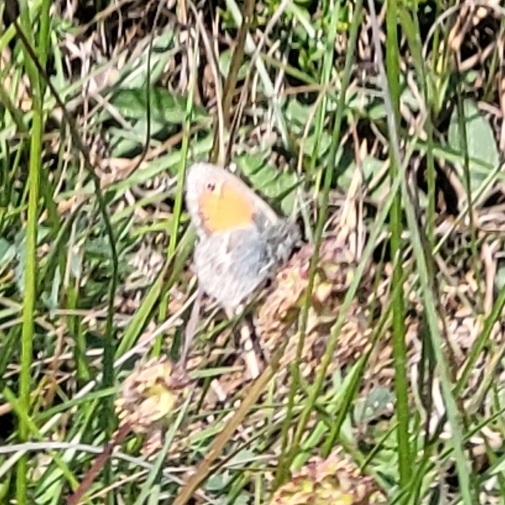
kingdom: Animalia
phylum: Arthropoda
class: Insecta
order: Lepidoptera
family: Nymphalidae
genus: Coenonympha
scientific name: Coenonympha pamphilus
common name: Small heath
